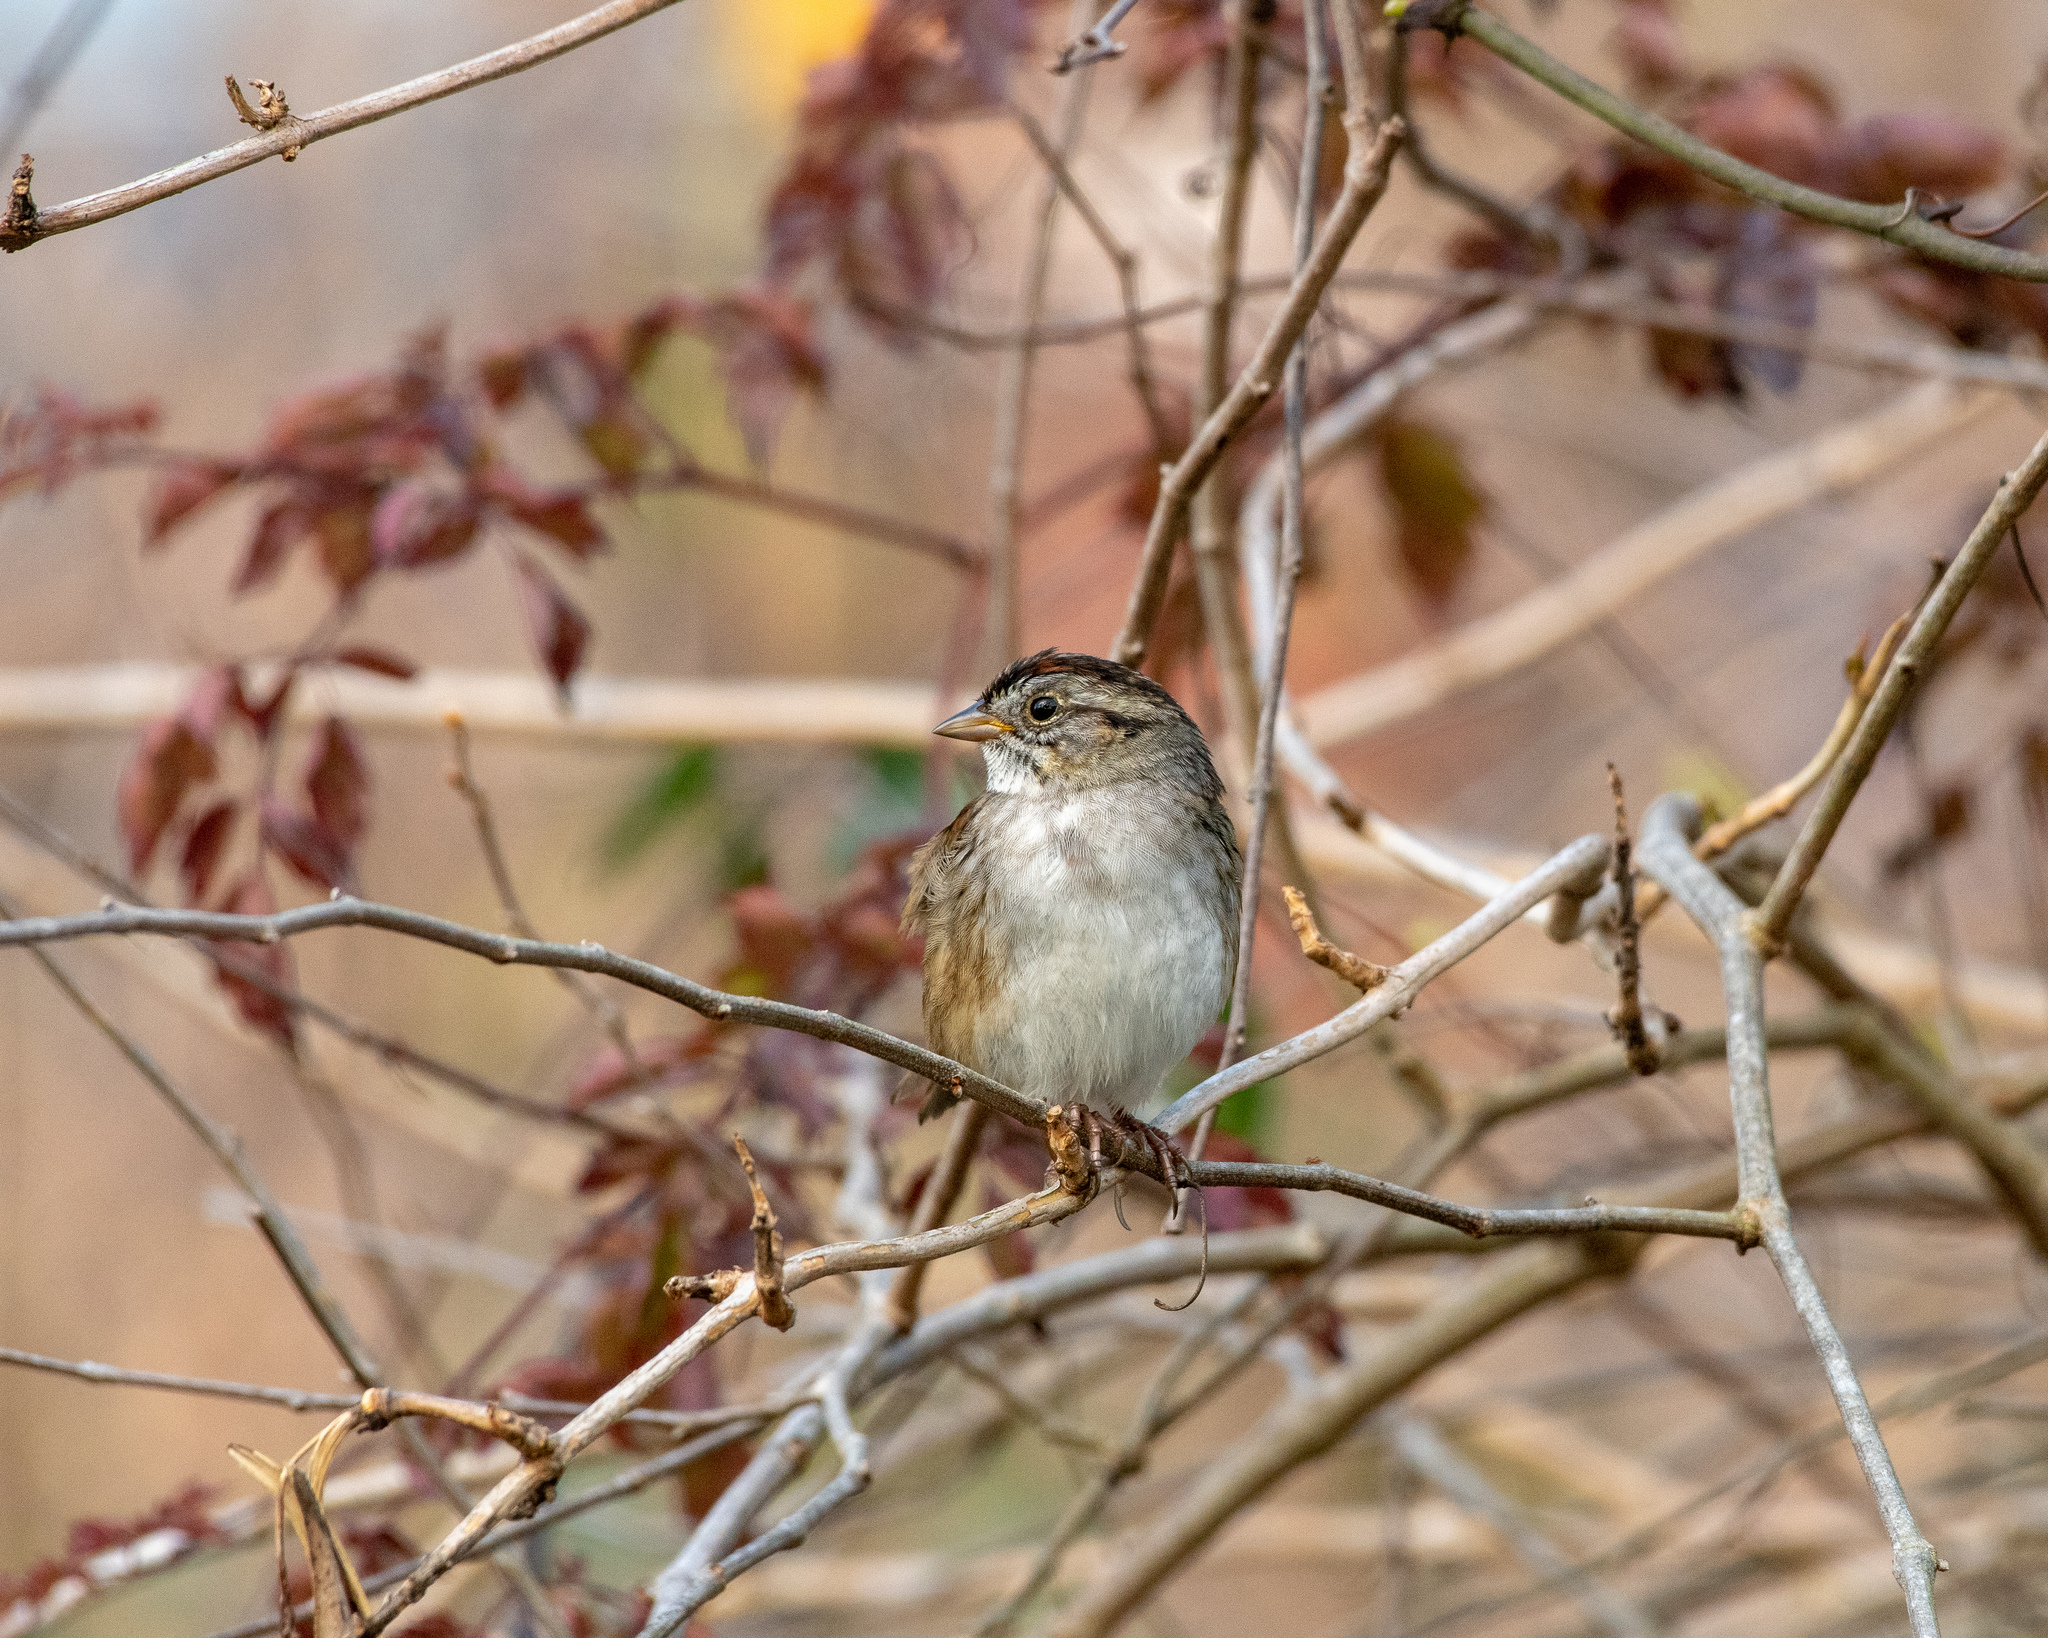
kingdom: Animalia
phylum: Chordata
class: Aves
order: Passeriformes
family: Passerellidae
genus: Melospiza
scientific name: Melospiza georgiana
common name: Swamp sparrow
